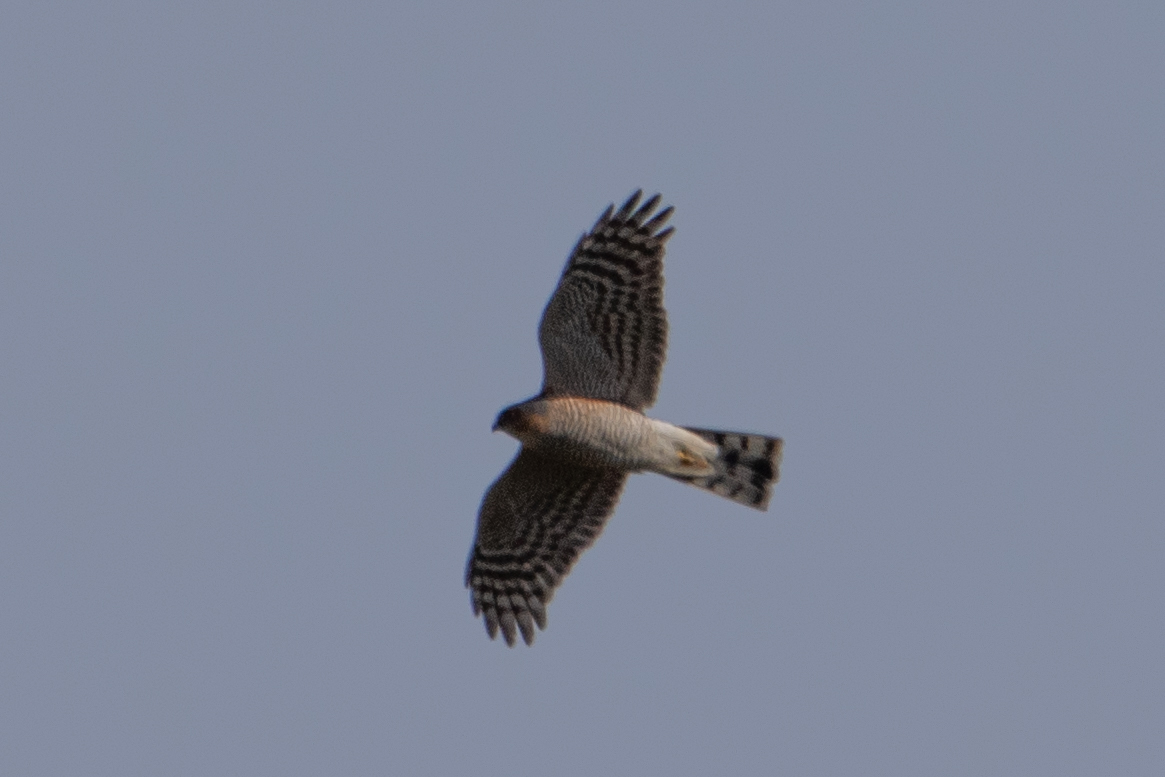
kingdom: Animalia
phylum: Chordata
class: Aves
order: Accipitriformes
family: Accipitridae
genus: Accipiter
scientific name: Accipiter nisus
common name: Eurasian sparrowhawk
